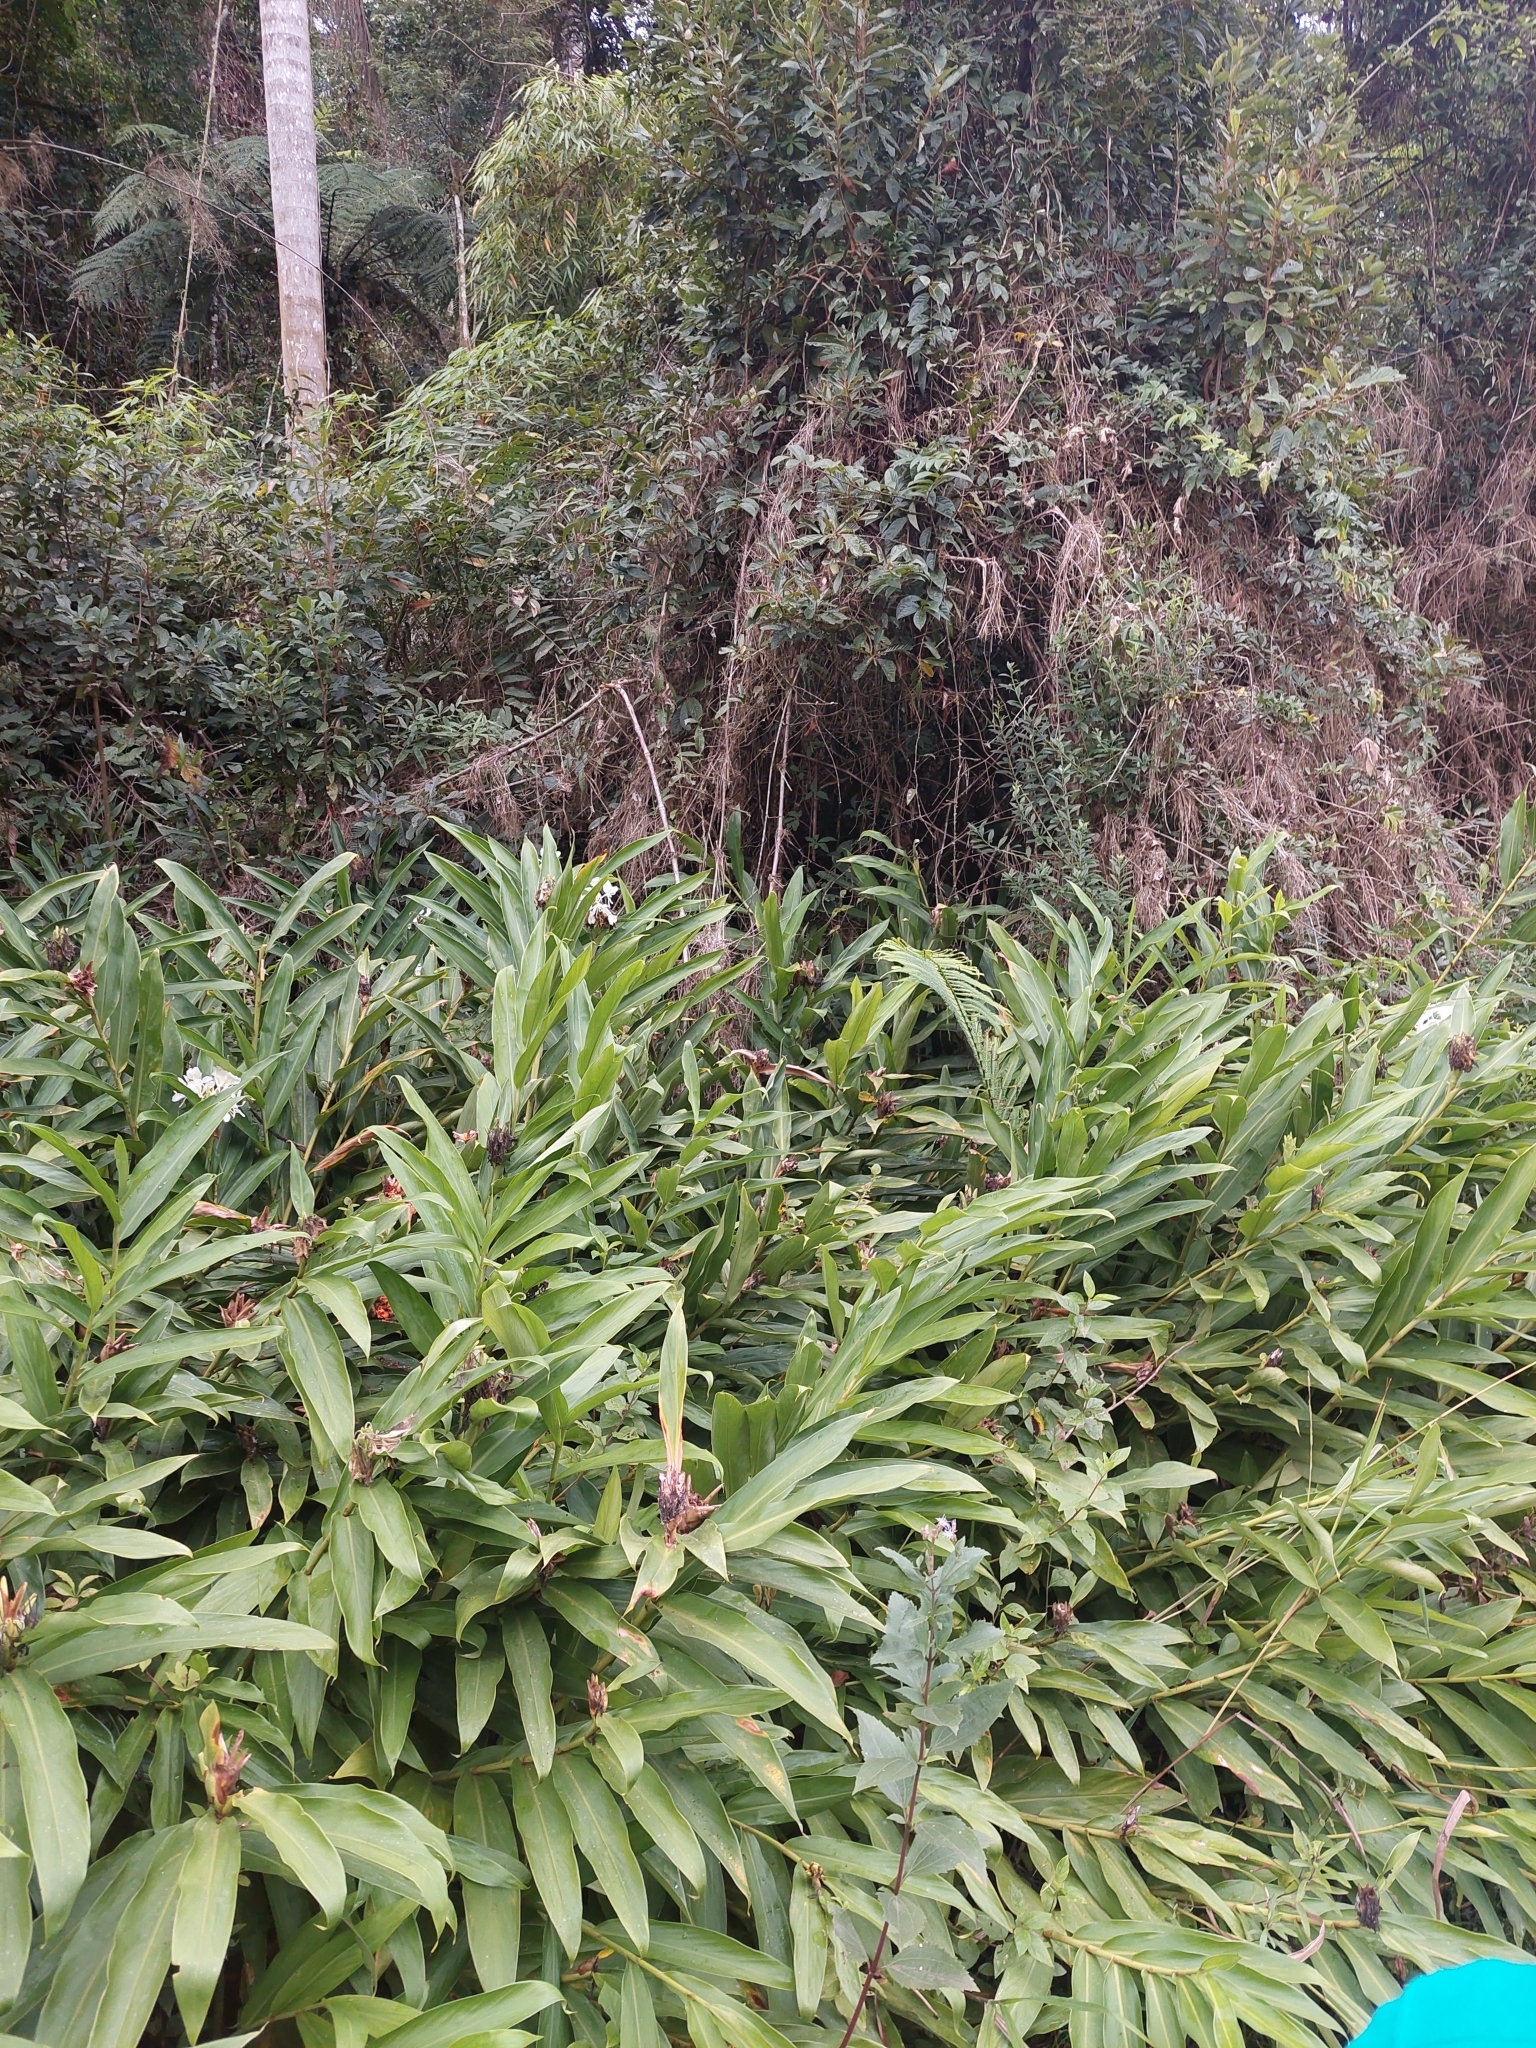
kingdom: Plantae
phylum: Tracheophyta
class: Liliopsida
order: Zingiberales
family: Zingiberaceae
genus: Hedychium
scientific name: Hedychium coronarium
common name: White garland-lily
